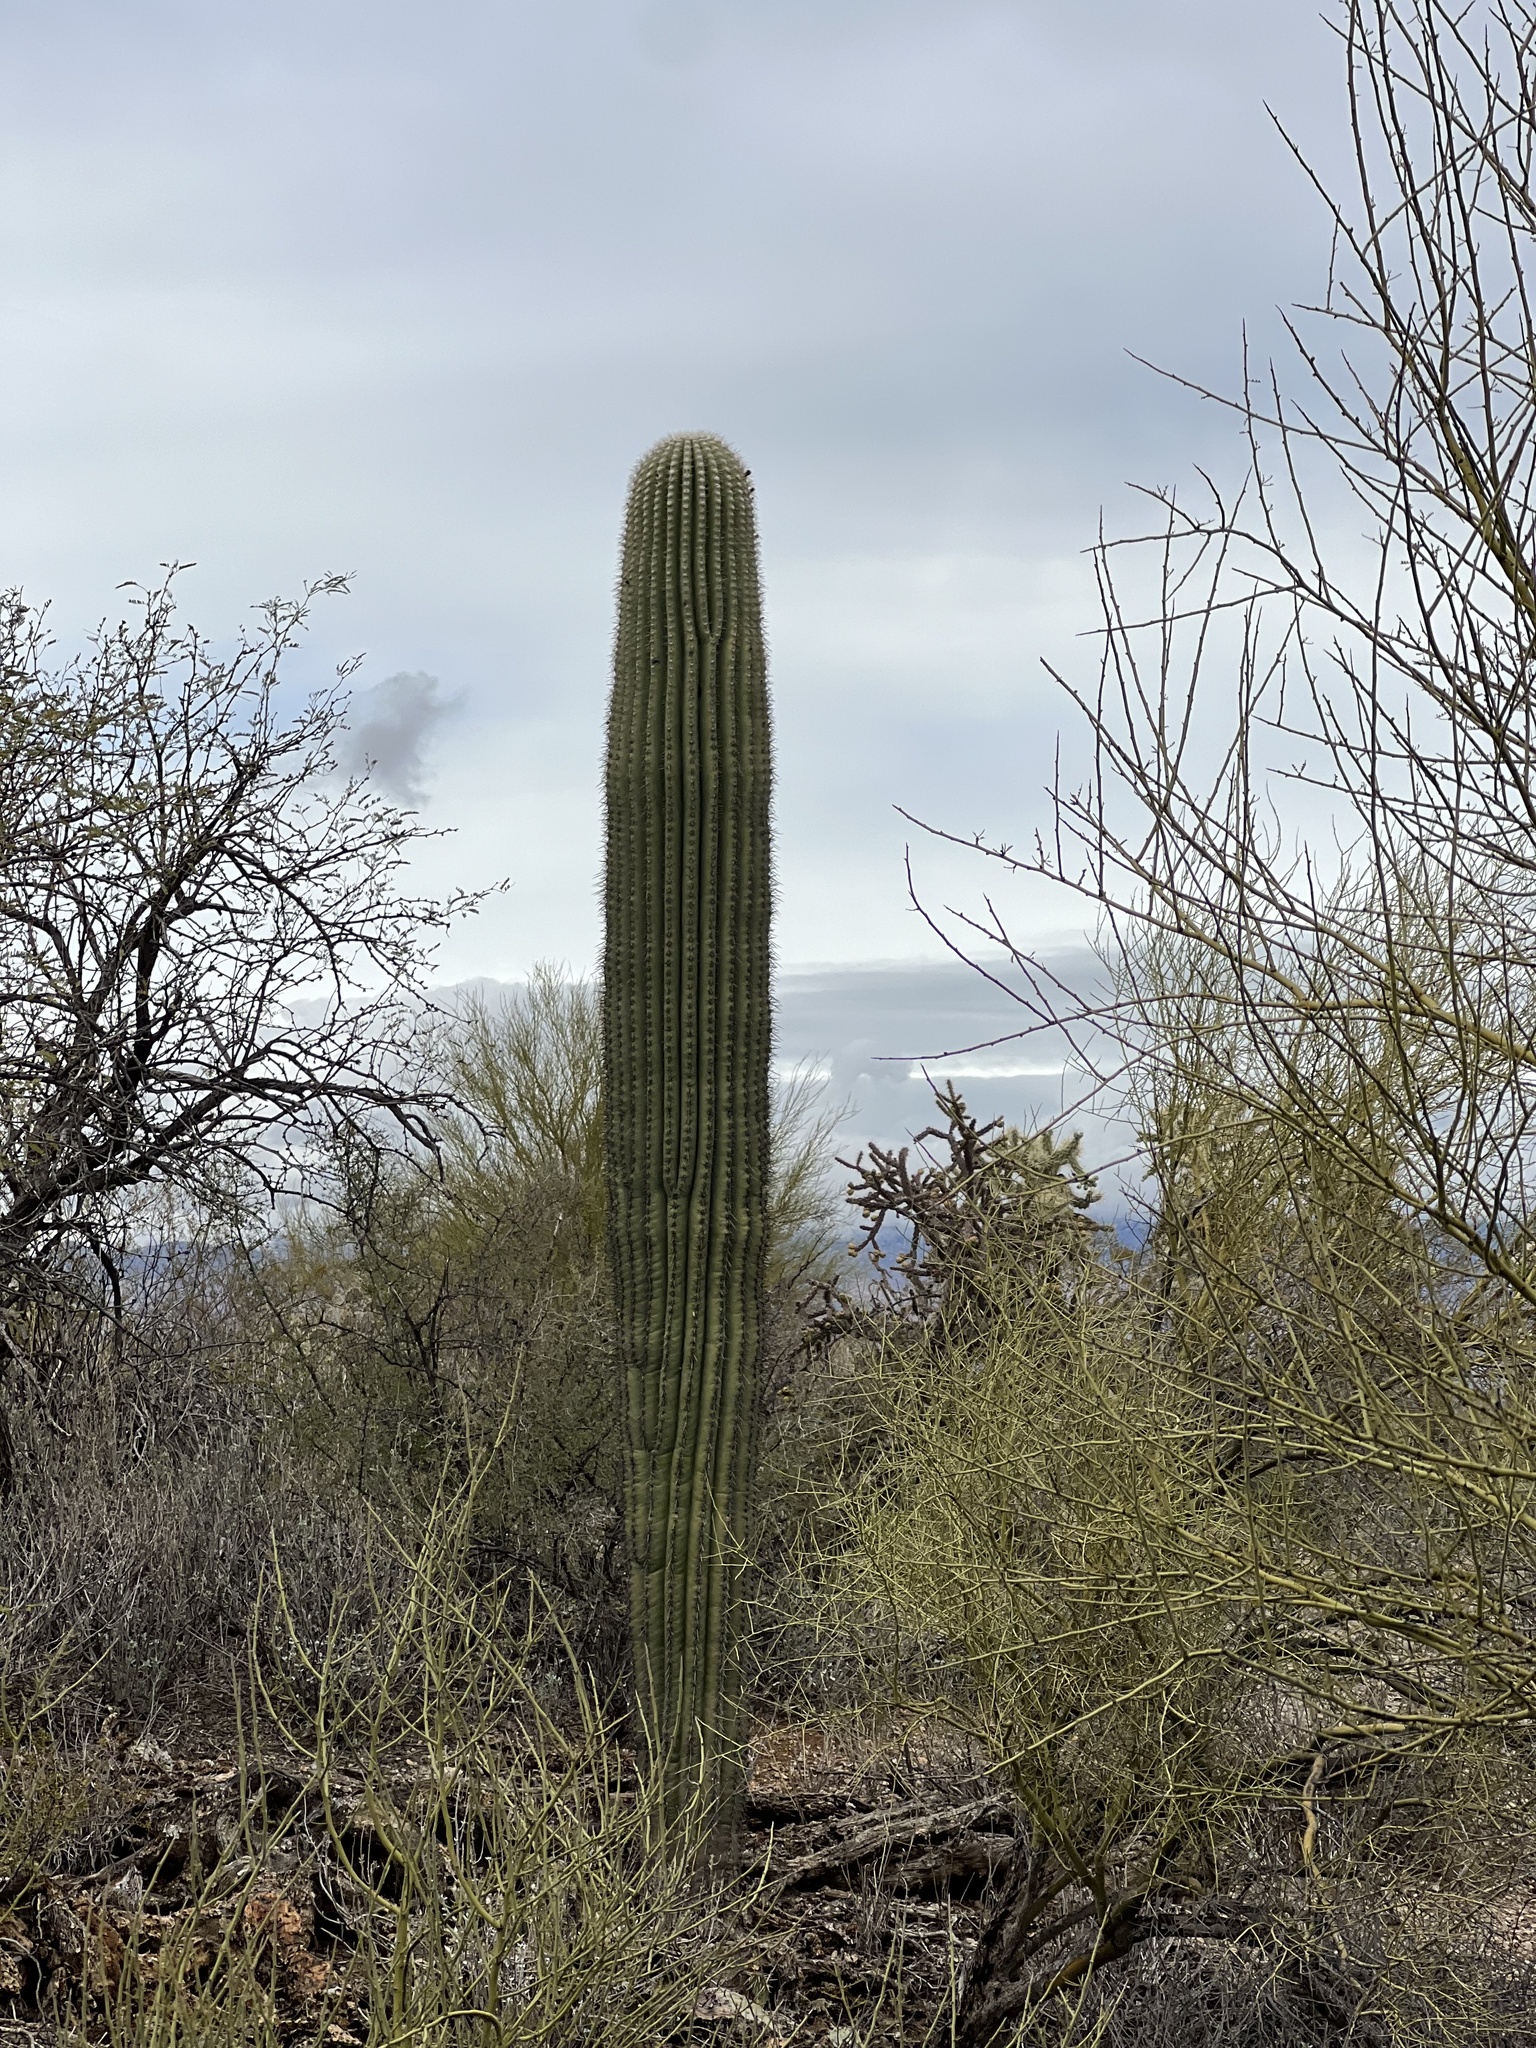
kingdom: Plantae
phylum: Tracheophyta
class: Magnoliopsida
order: Caryophyllales
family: Cactaceae
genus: Carnegiea
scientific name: Carnegiea gigantea
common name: Saguaro
